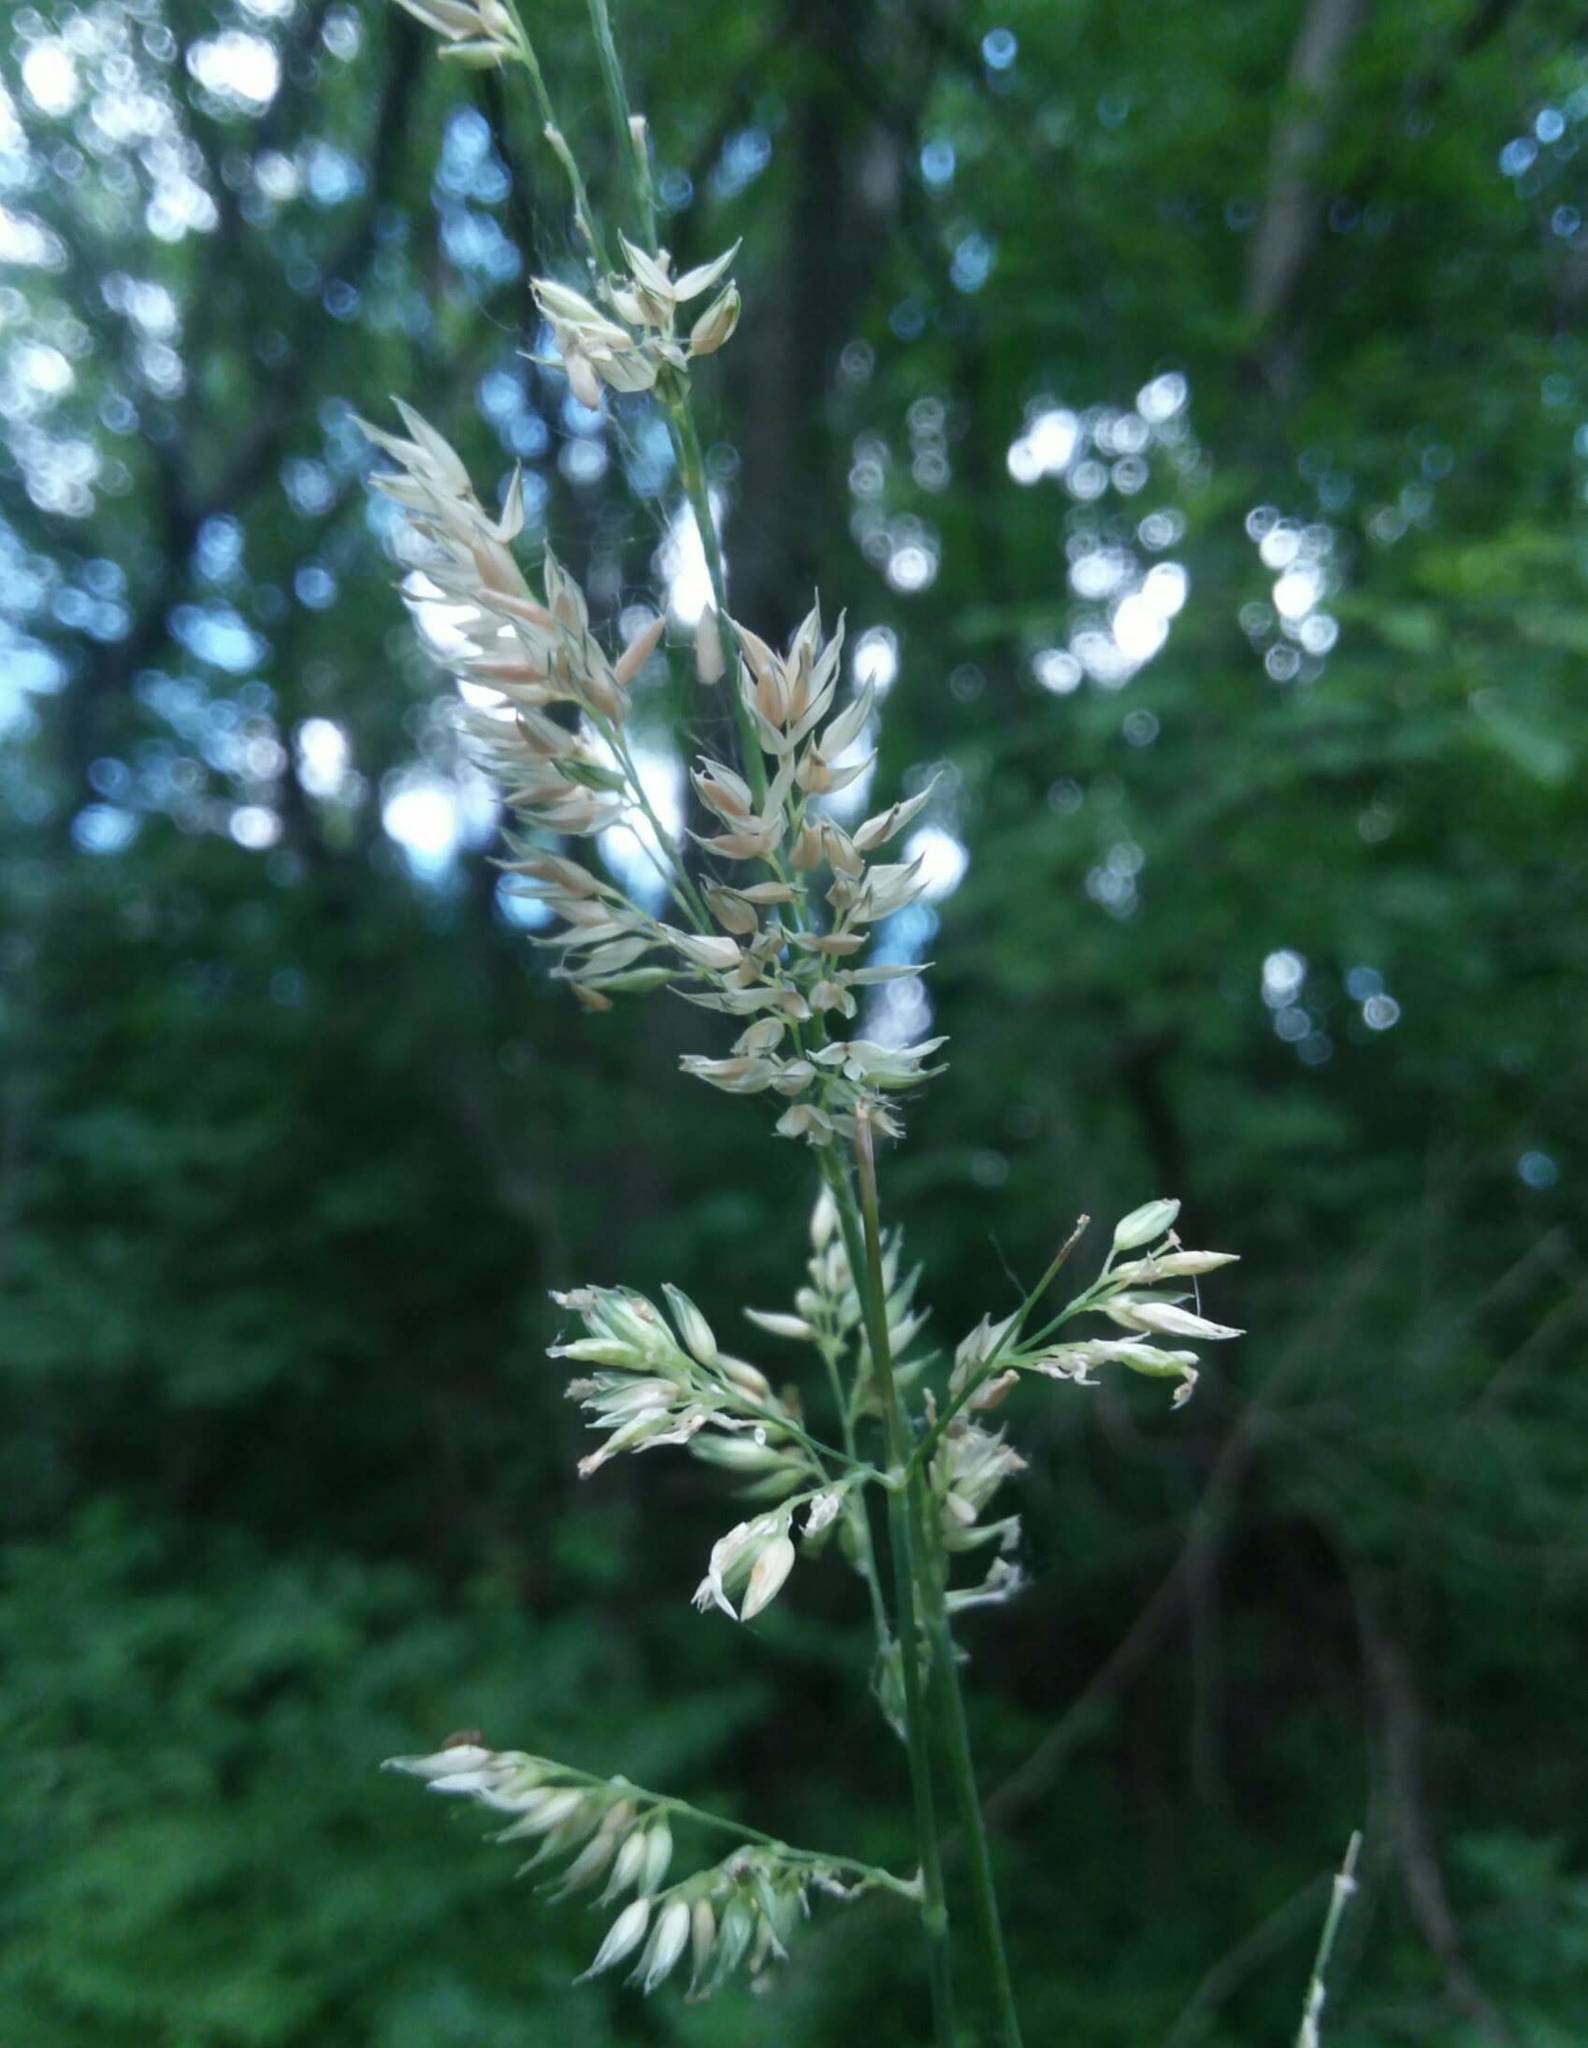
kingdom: Plantae
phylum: Tracheophyta
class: Liliopsida
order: Poales
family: Poaceae
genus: Phalaris
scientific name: Phalaris arundinacea
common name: Reed canary-grass
